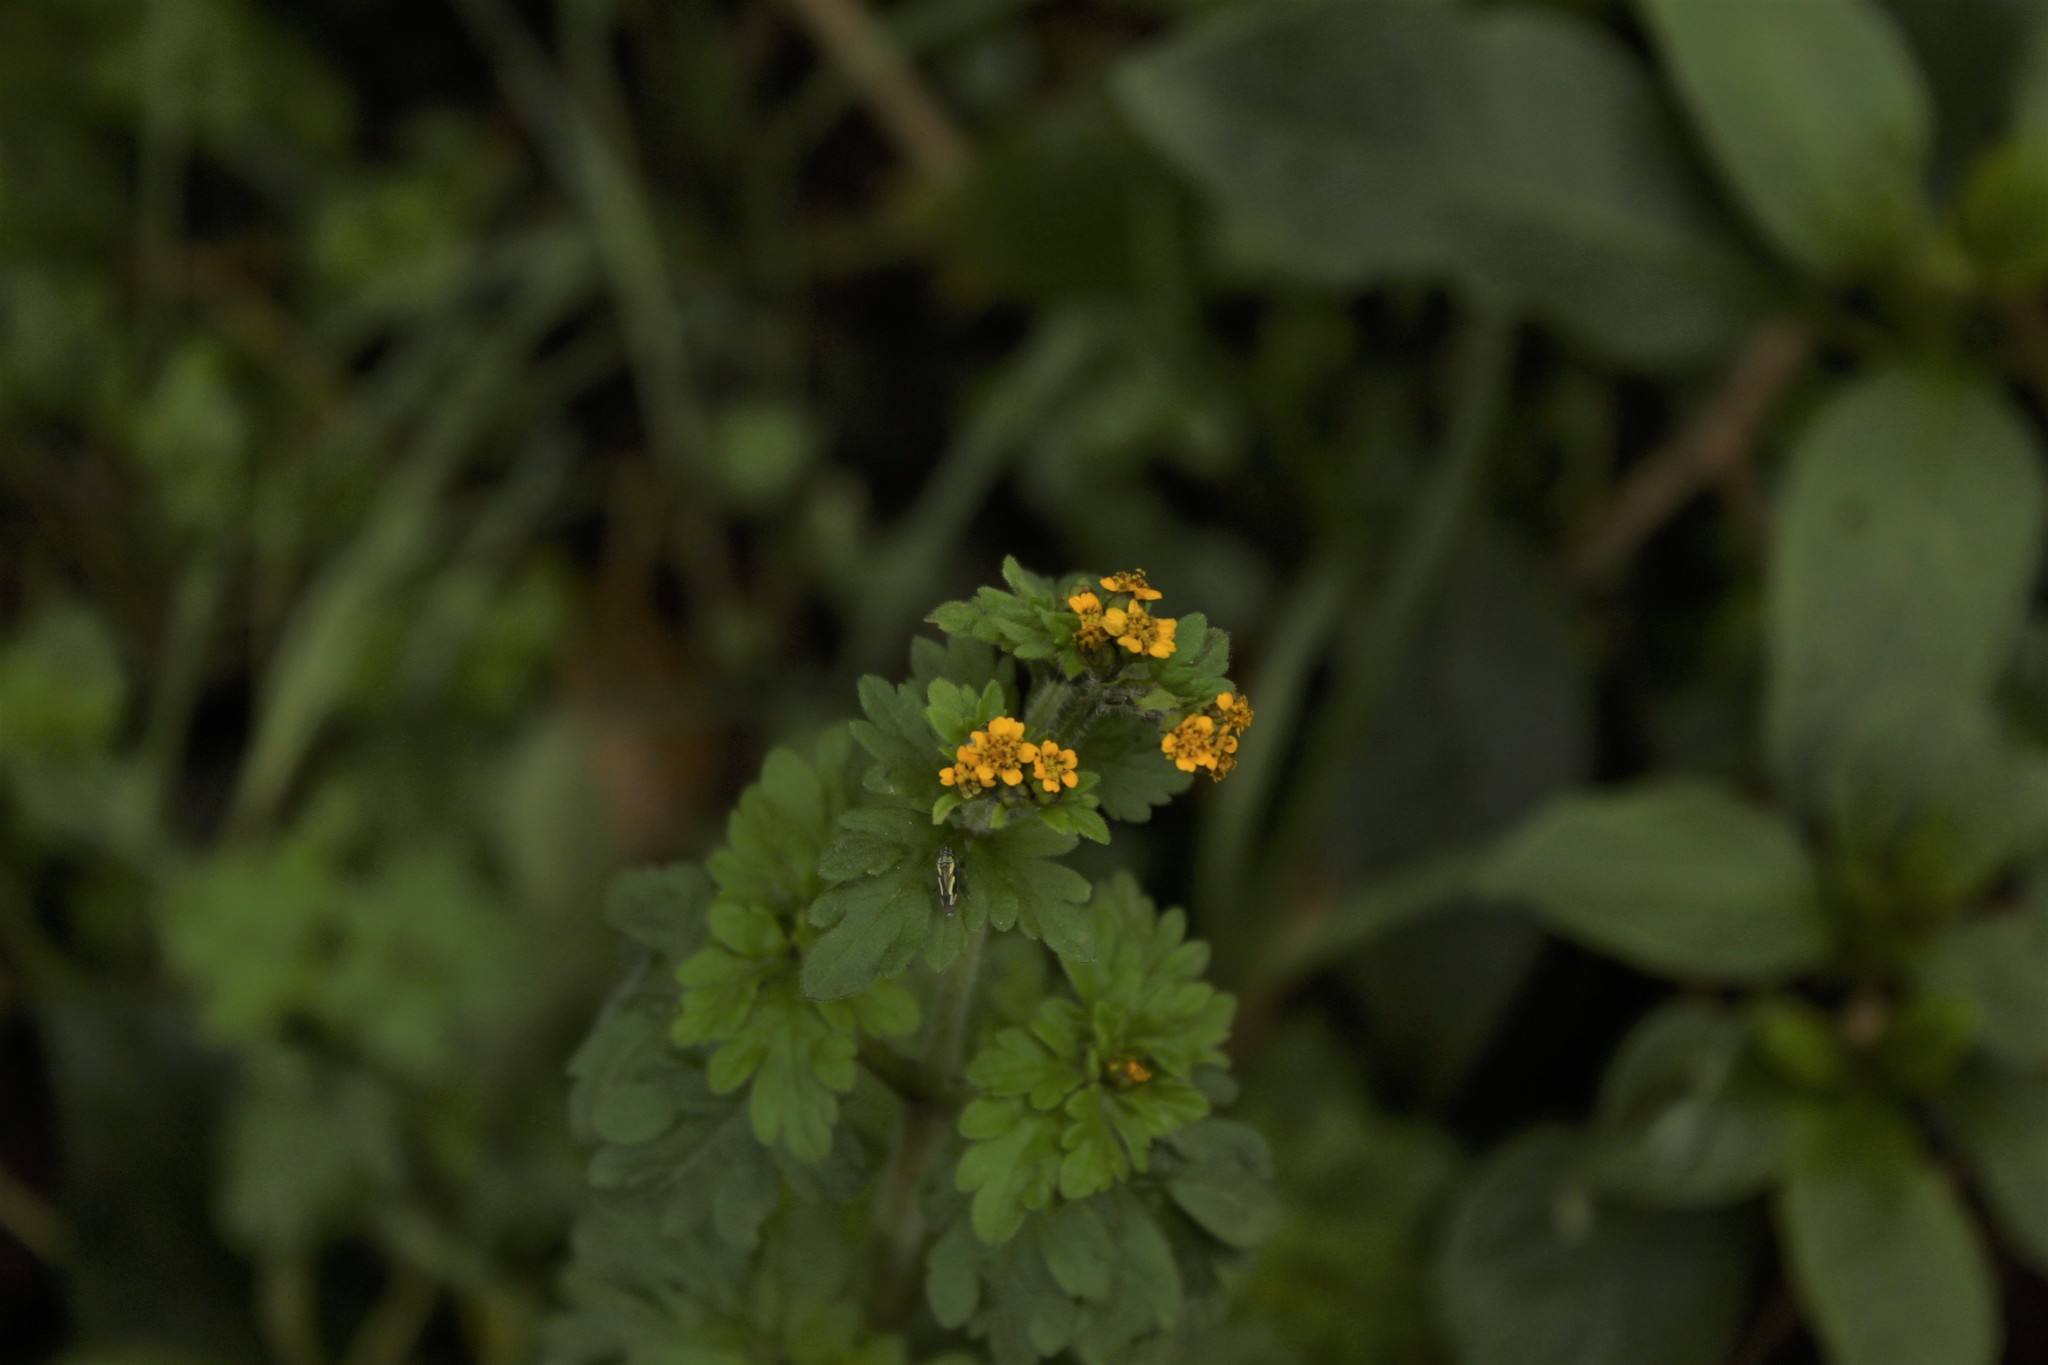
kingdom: Plantae
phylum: Tracheophyta
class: Magnoliopsida
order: Asterales
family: Asteraceae
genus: Villanova
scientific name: Villanova oppositifolia
